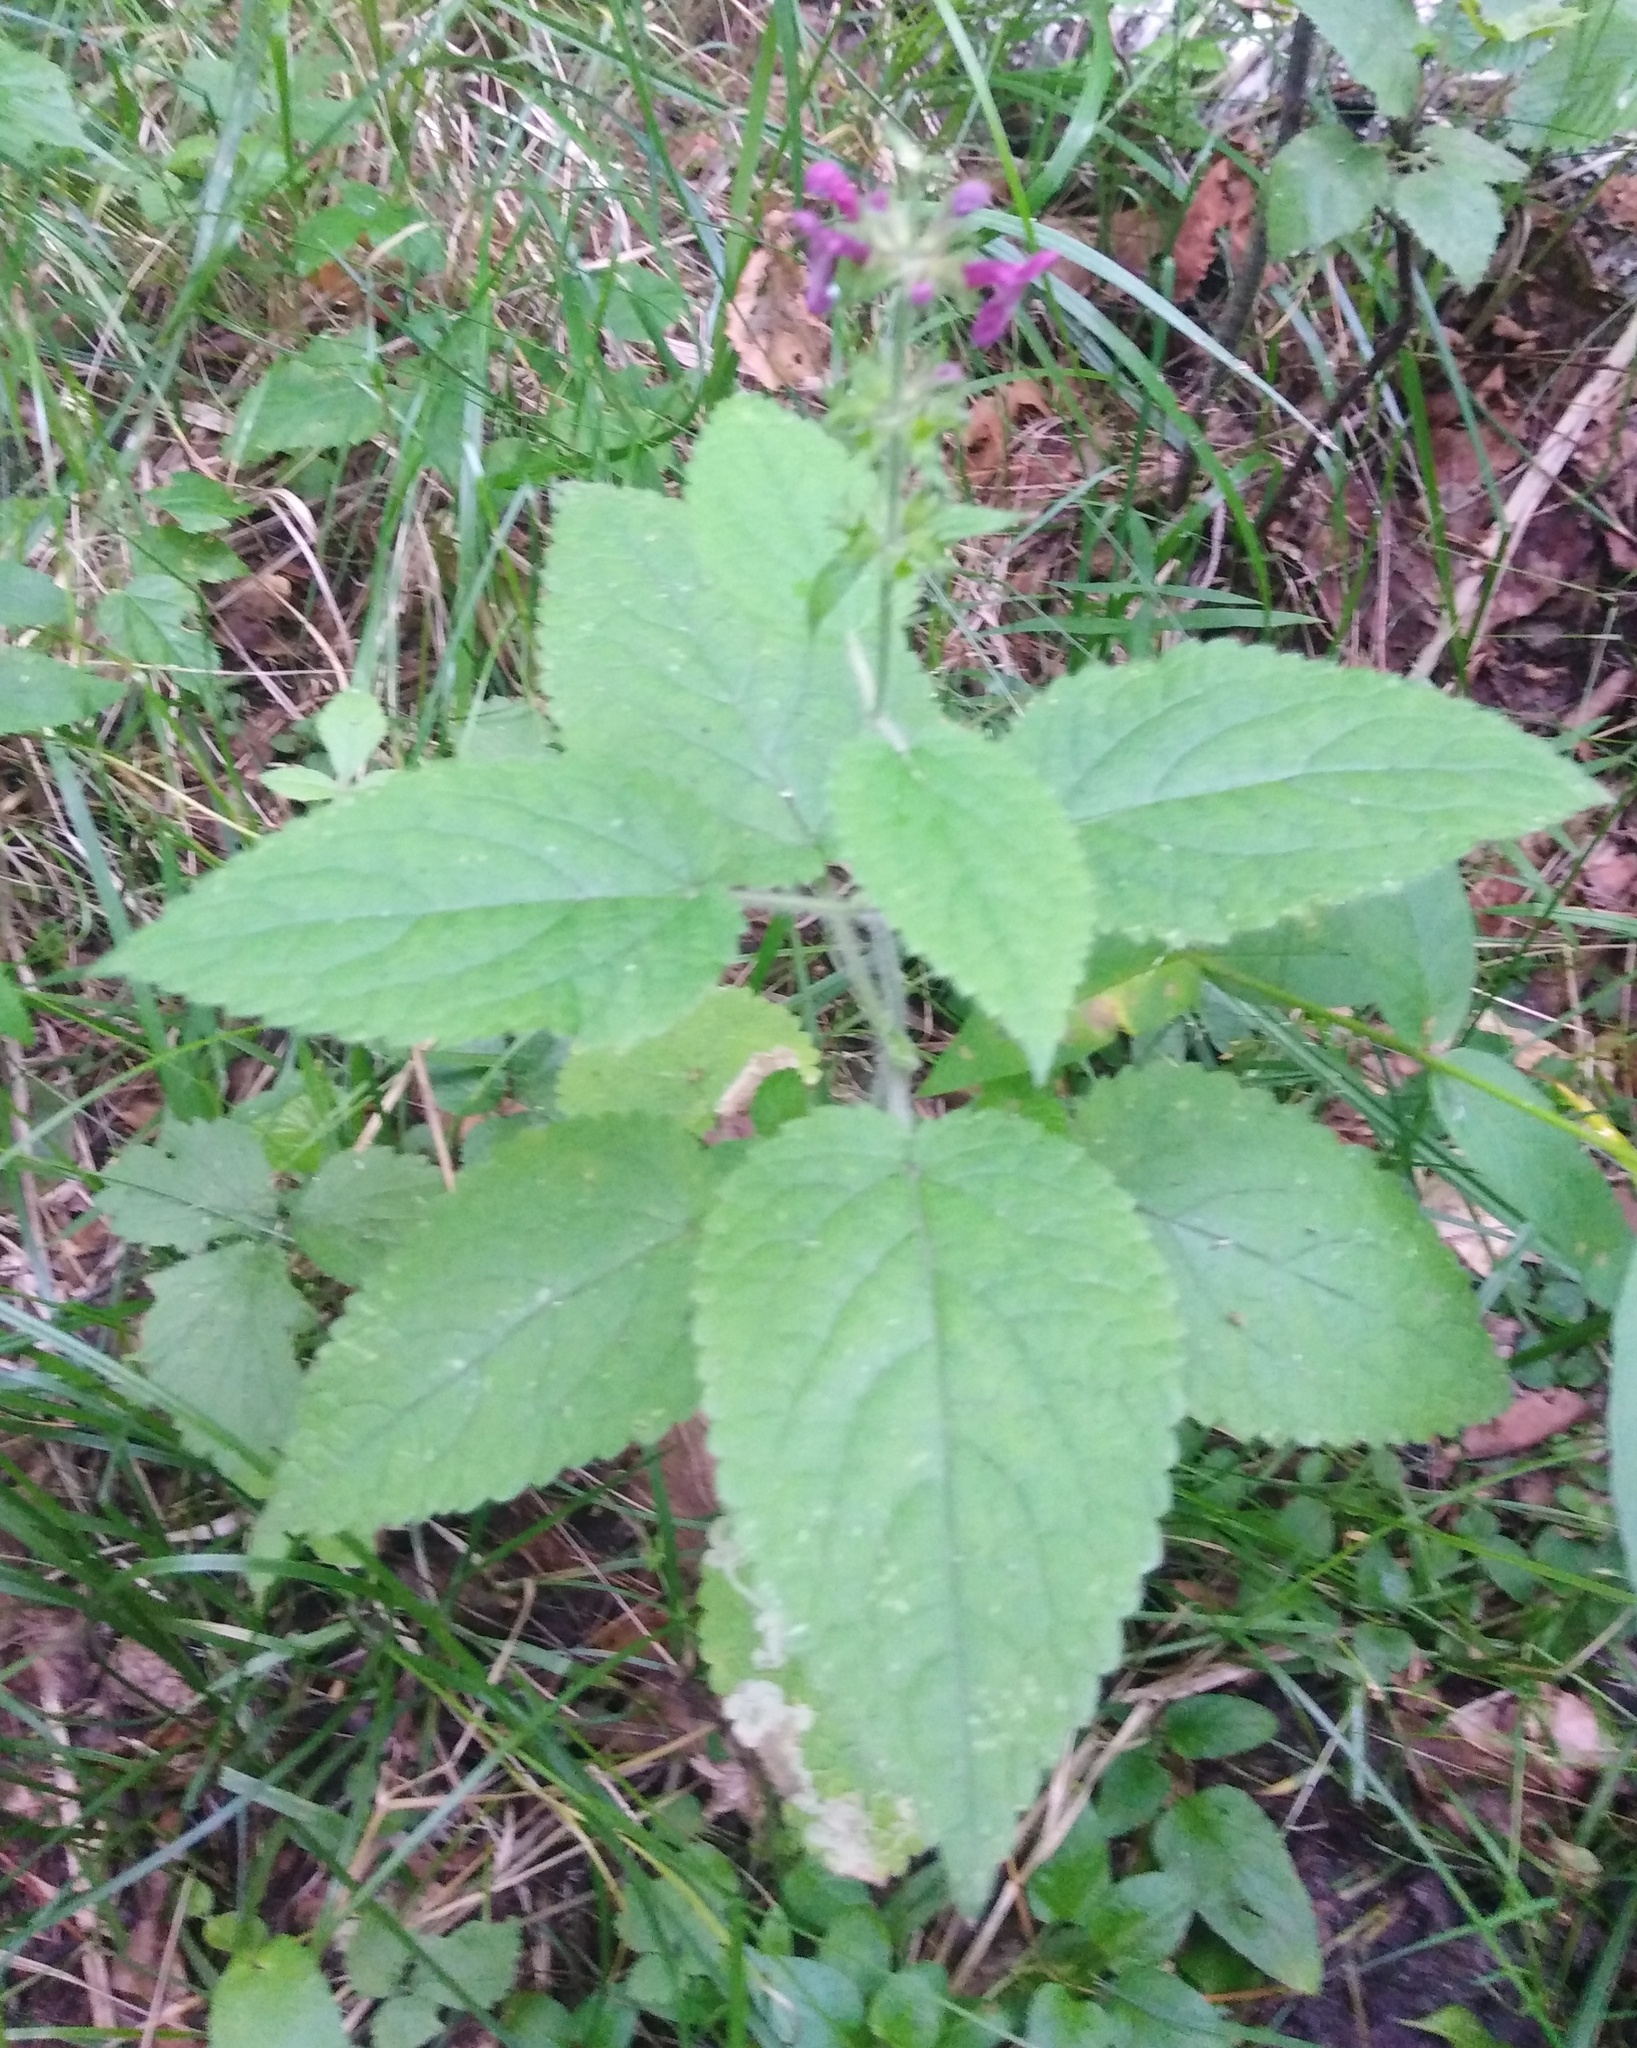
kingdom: Plantae
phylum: Tracheophyta
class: Magnoliopsida
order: Lamiales
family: Lamiaceae
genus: Stachys
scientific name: Stachys sylvatica
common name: Hedge woundwort
